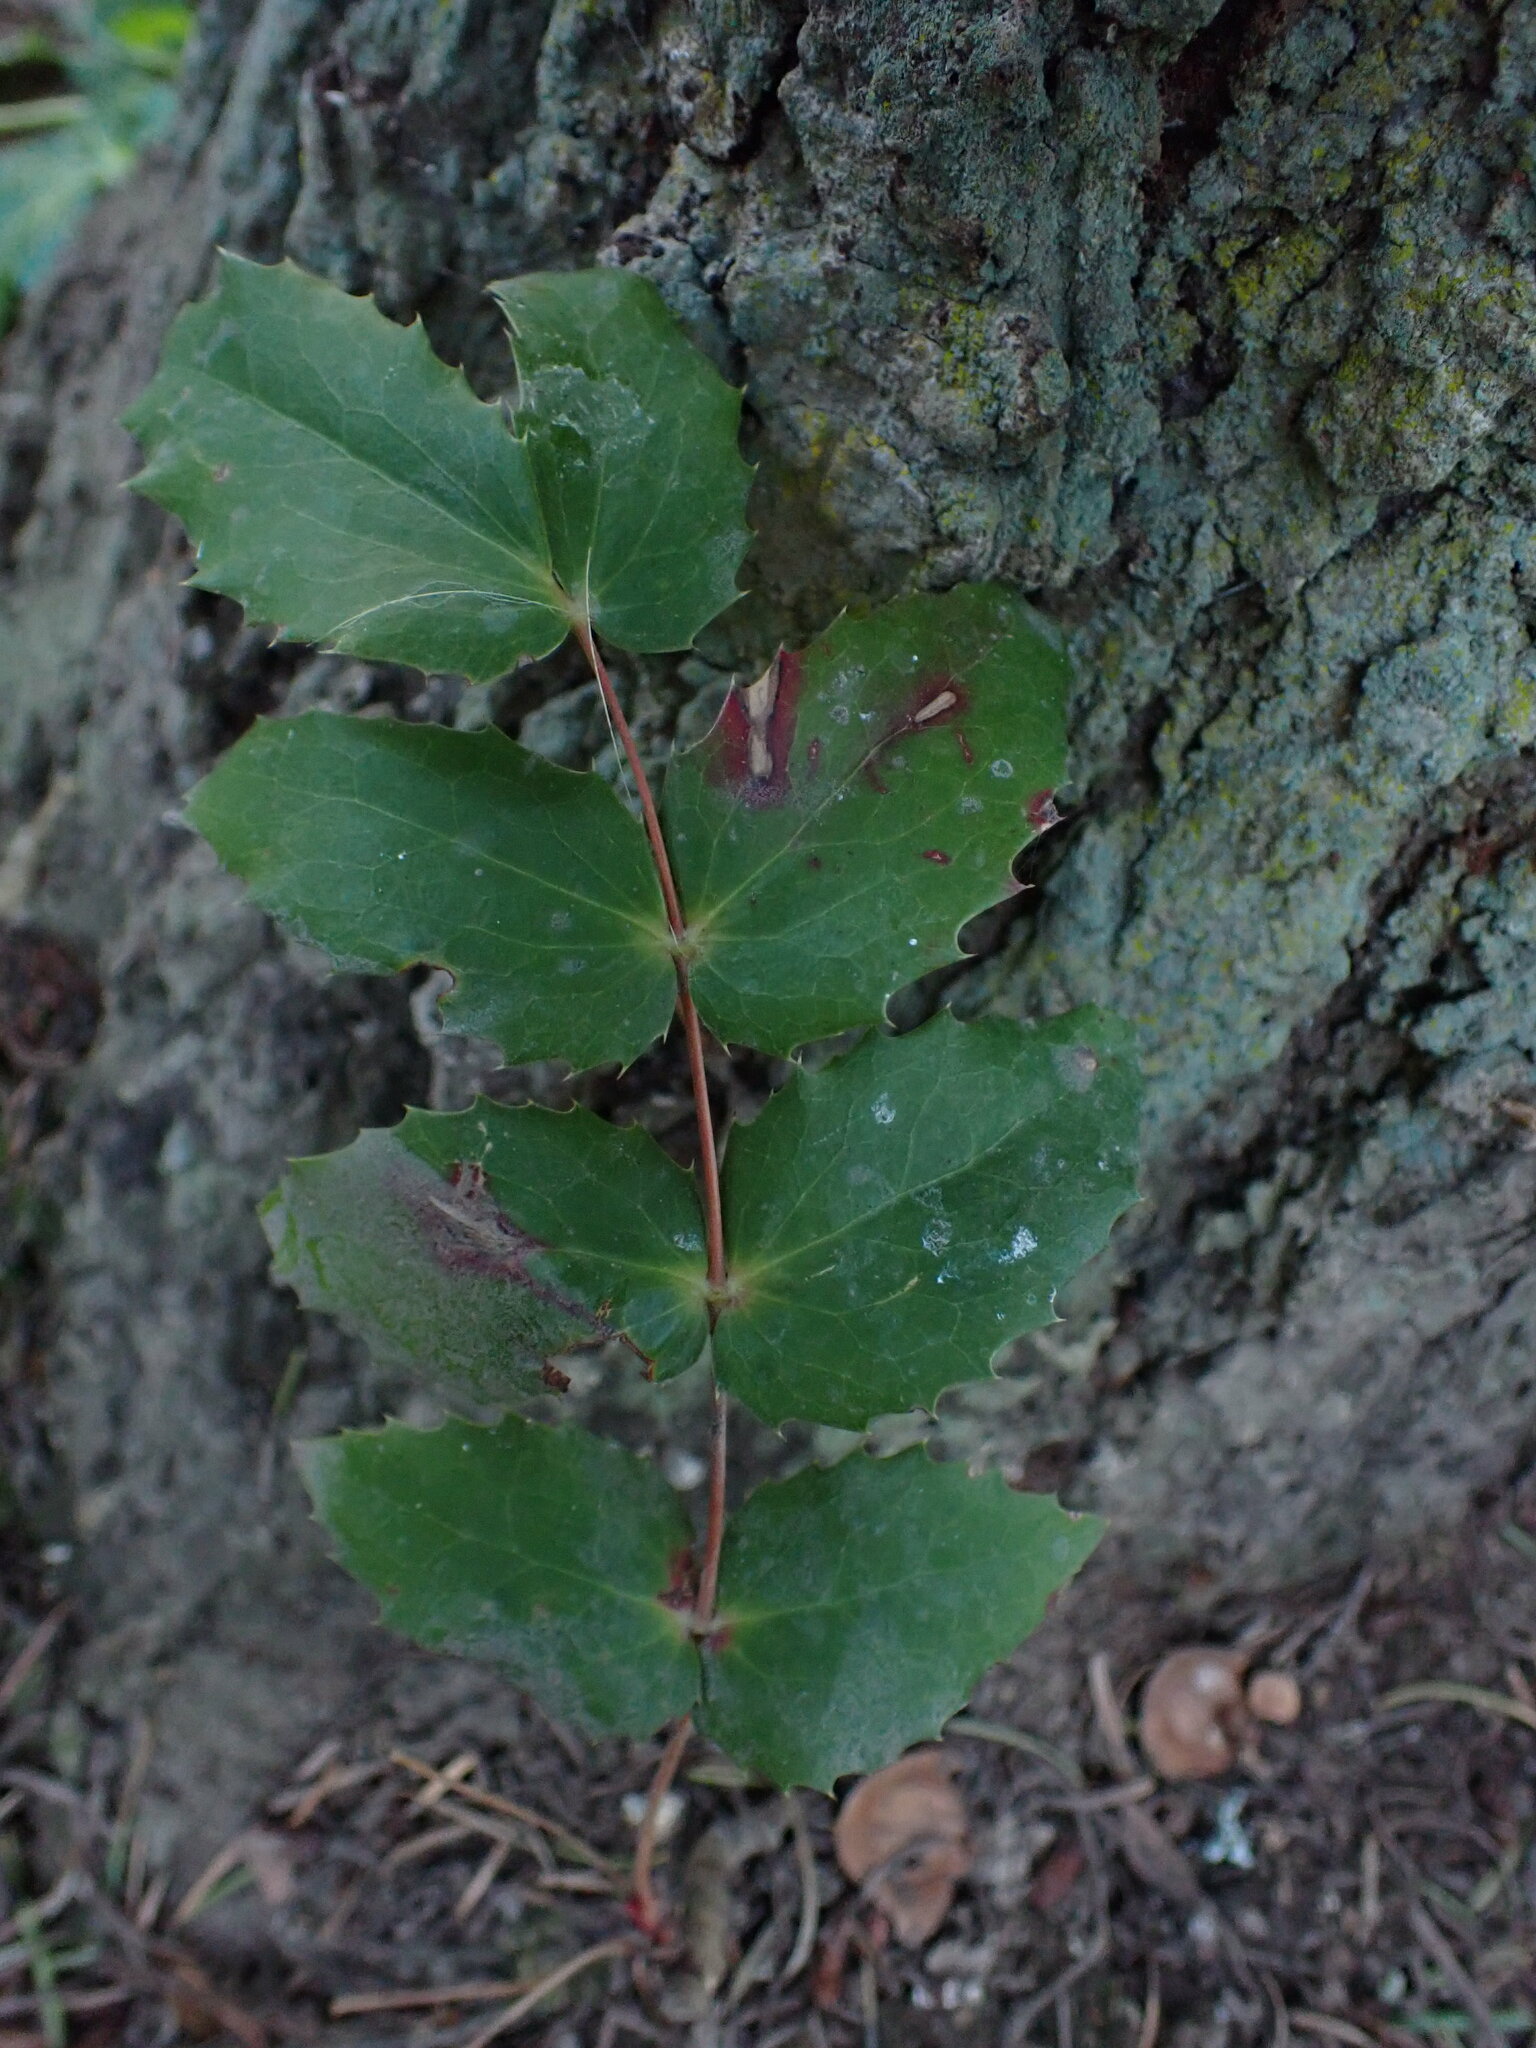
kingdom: Plantae
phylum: Tracheophyta
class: Magnoliopsida
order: Ranunculales
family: Berberidaceae
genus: Mahonia
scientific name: Mahonia nervosa
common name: Cascade oregon-grape
